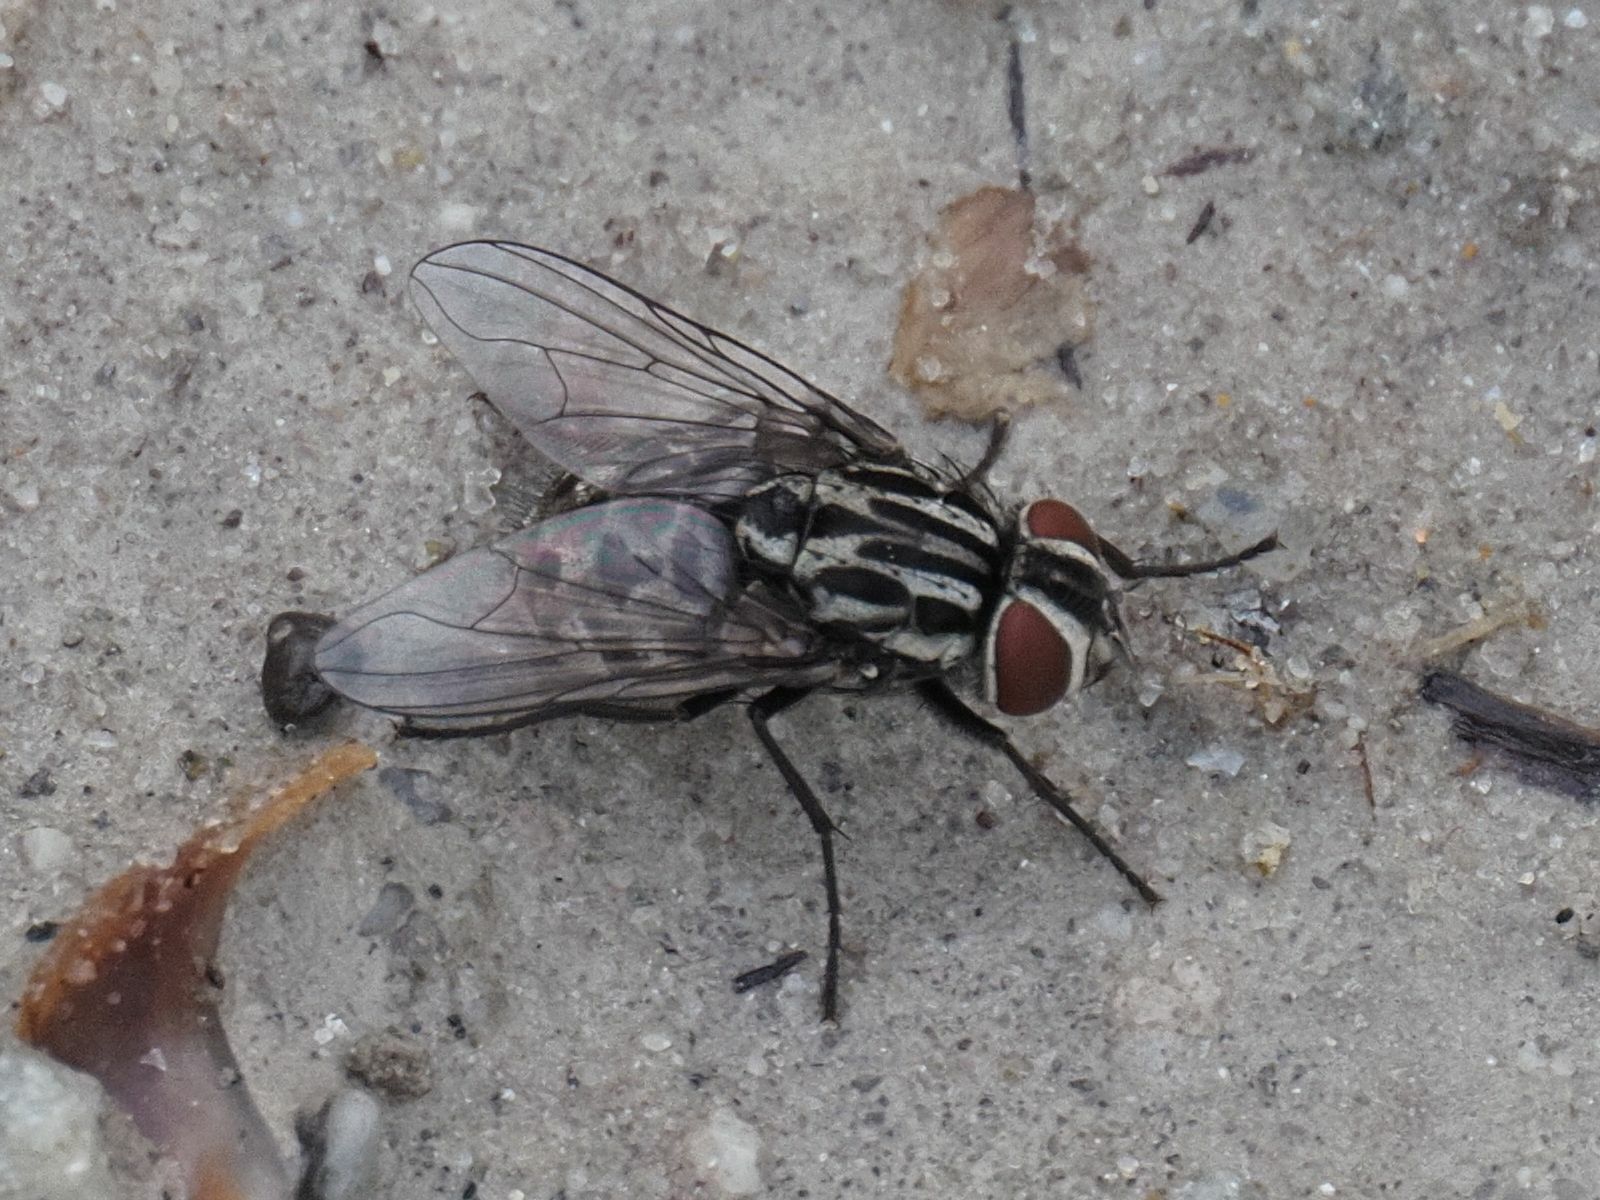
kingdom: Animalia
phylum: Arthropoda
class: Insecta
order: Diptera
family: Muscidae
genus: Graphomya
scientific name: Graphomya maculata
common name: Muscid fly
